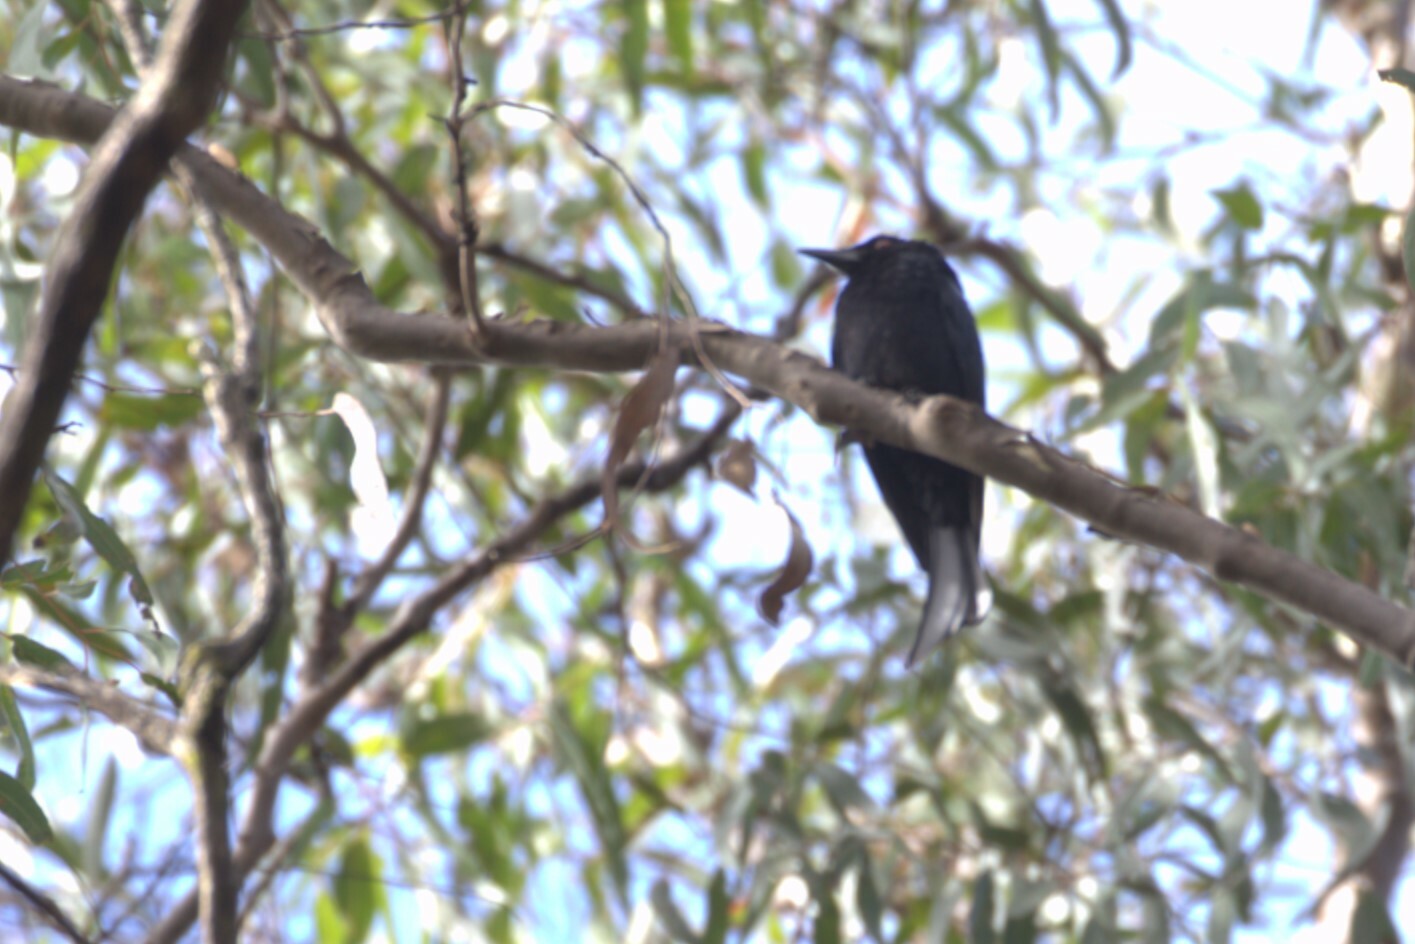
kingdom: Animalia
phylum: Chordata
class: Aves
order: Passeriformes
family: Dicruridae
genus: Dicrurus
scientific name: Dicrurus bracteatus
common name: Spangled drongo
